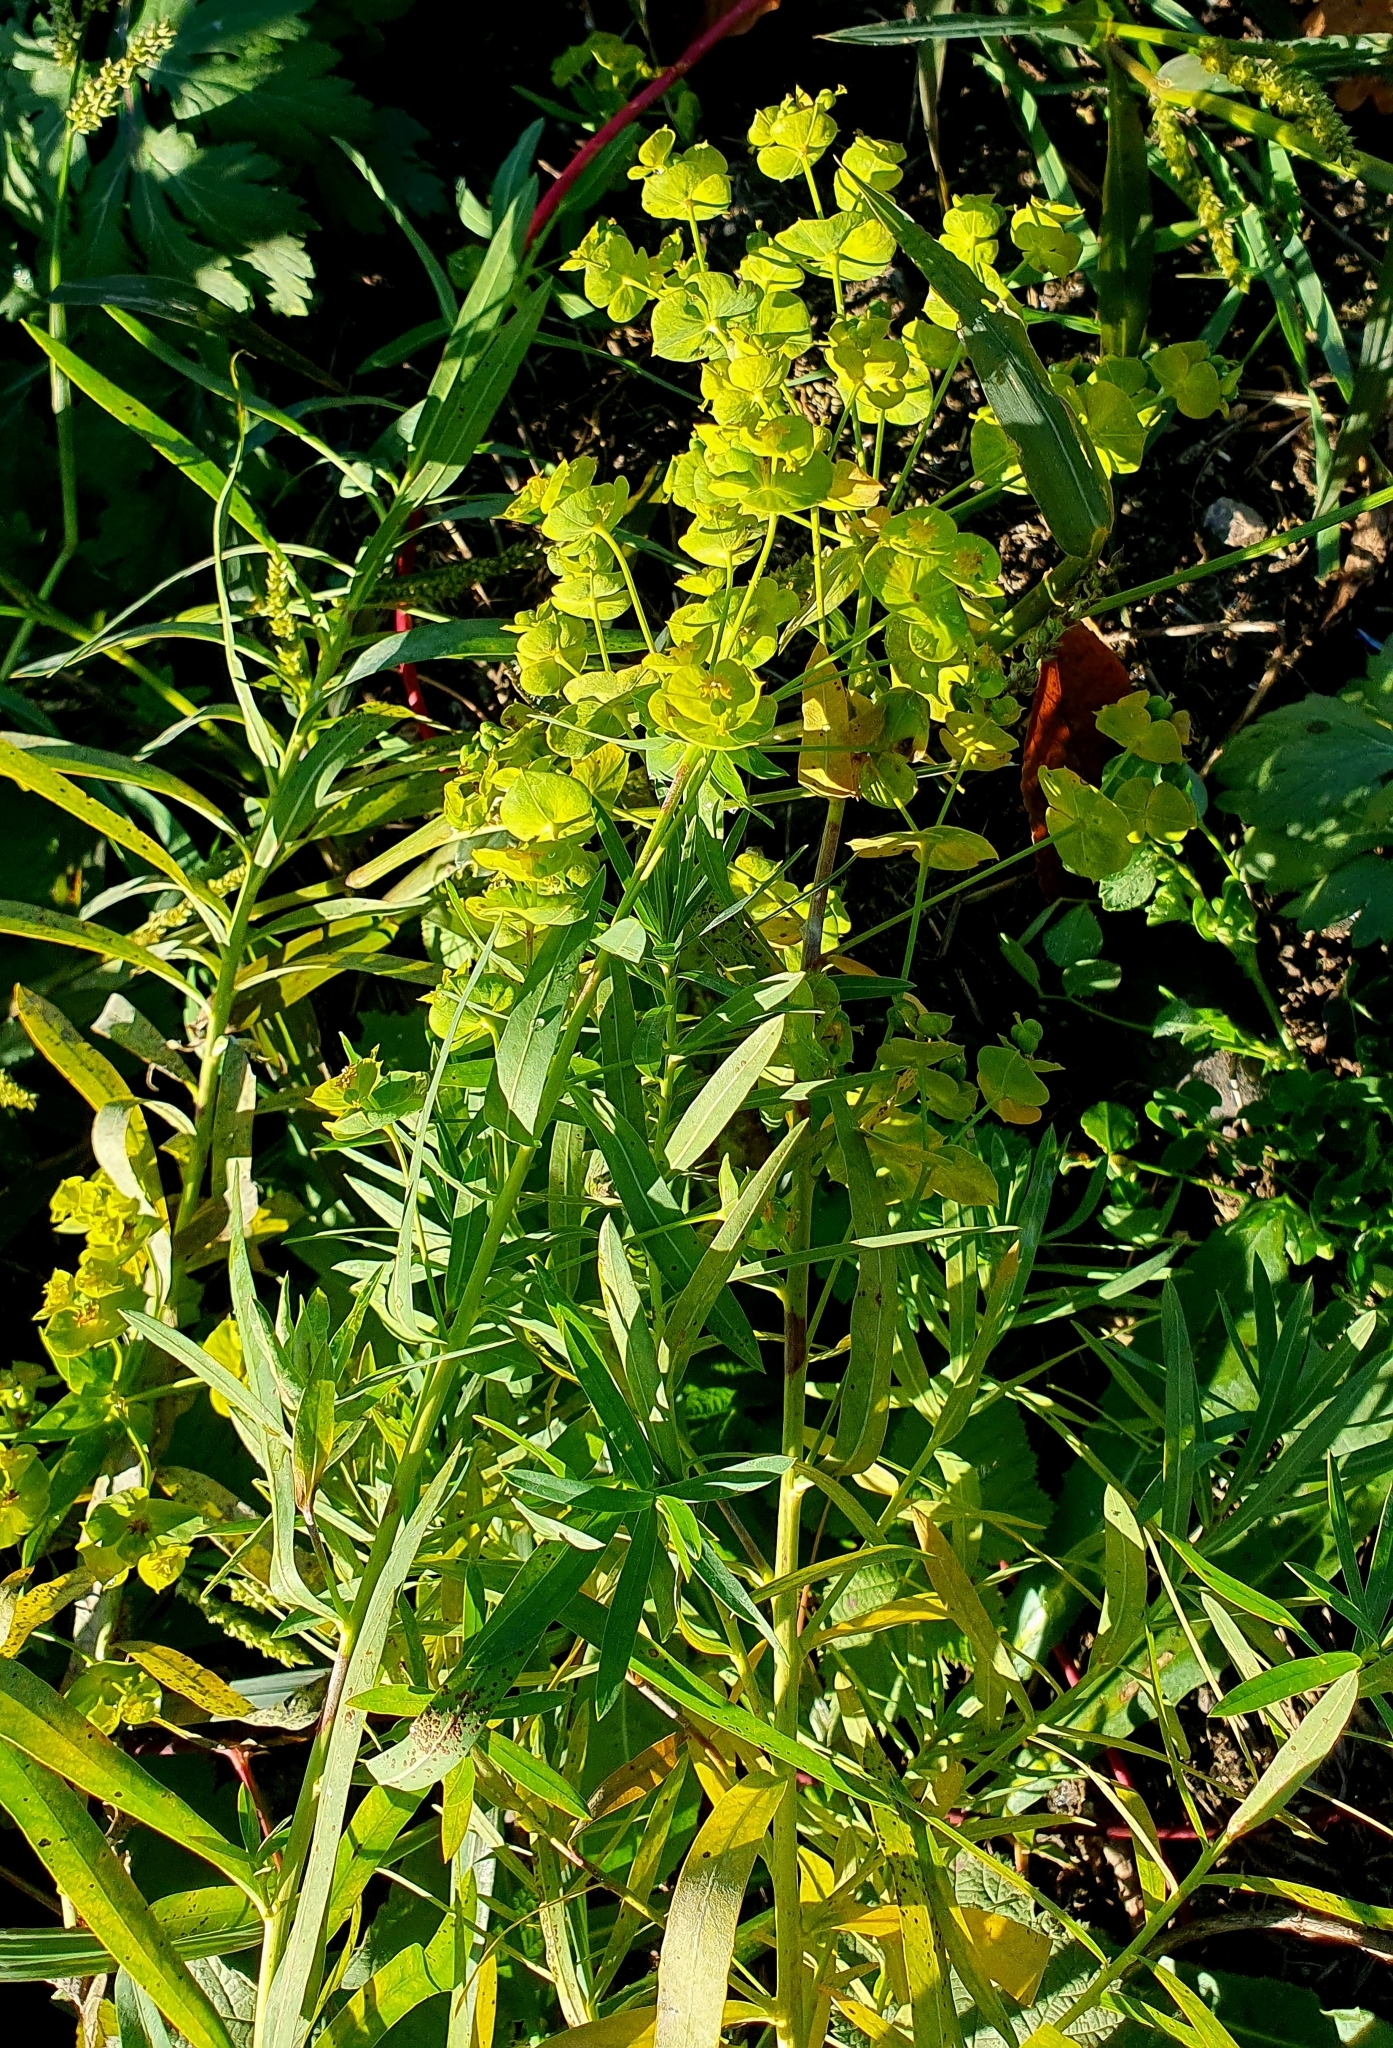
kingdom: Plantae
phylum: Tracheophyta
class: Magnoliopsida
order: Malpighiales
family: Euphorbiaceae
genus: Euphorbia
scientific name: Euphorbia virgata
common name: Leafy spurge
